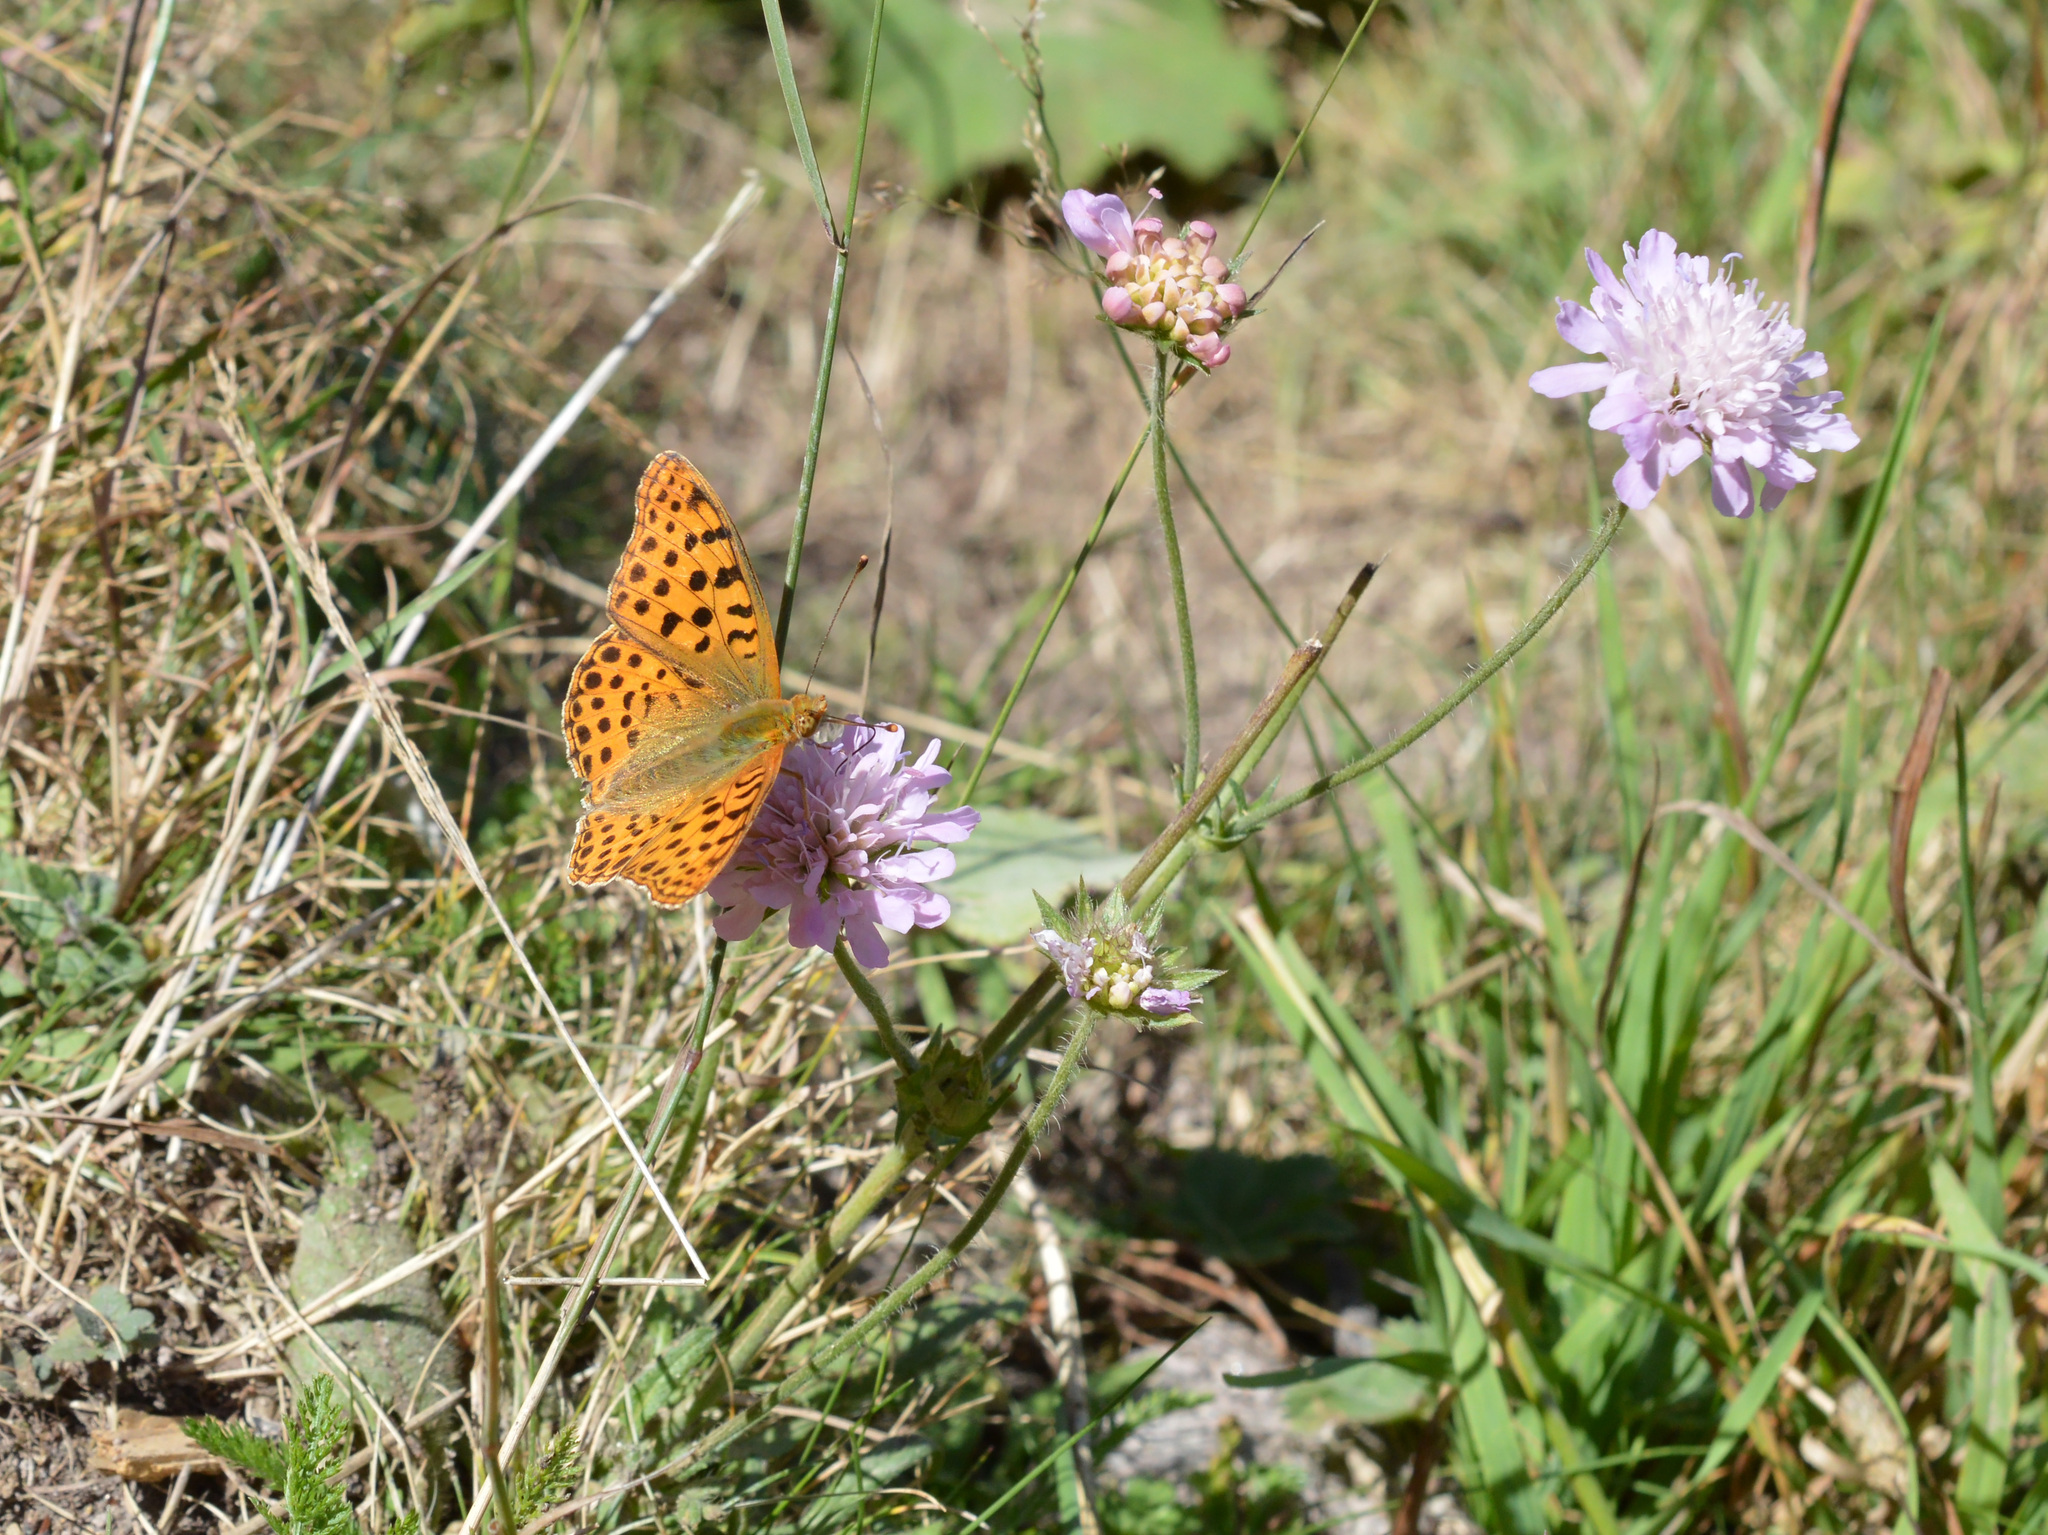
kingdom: Animalia
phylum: Arthropoda
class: Insecta
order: Lepidoptera
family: Nymphalidae
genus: Issoria
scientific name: Issoria lathonia
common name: Queen of spain fritillary
